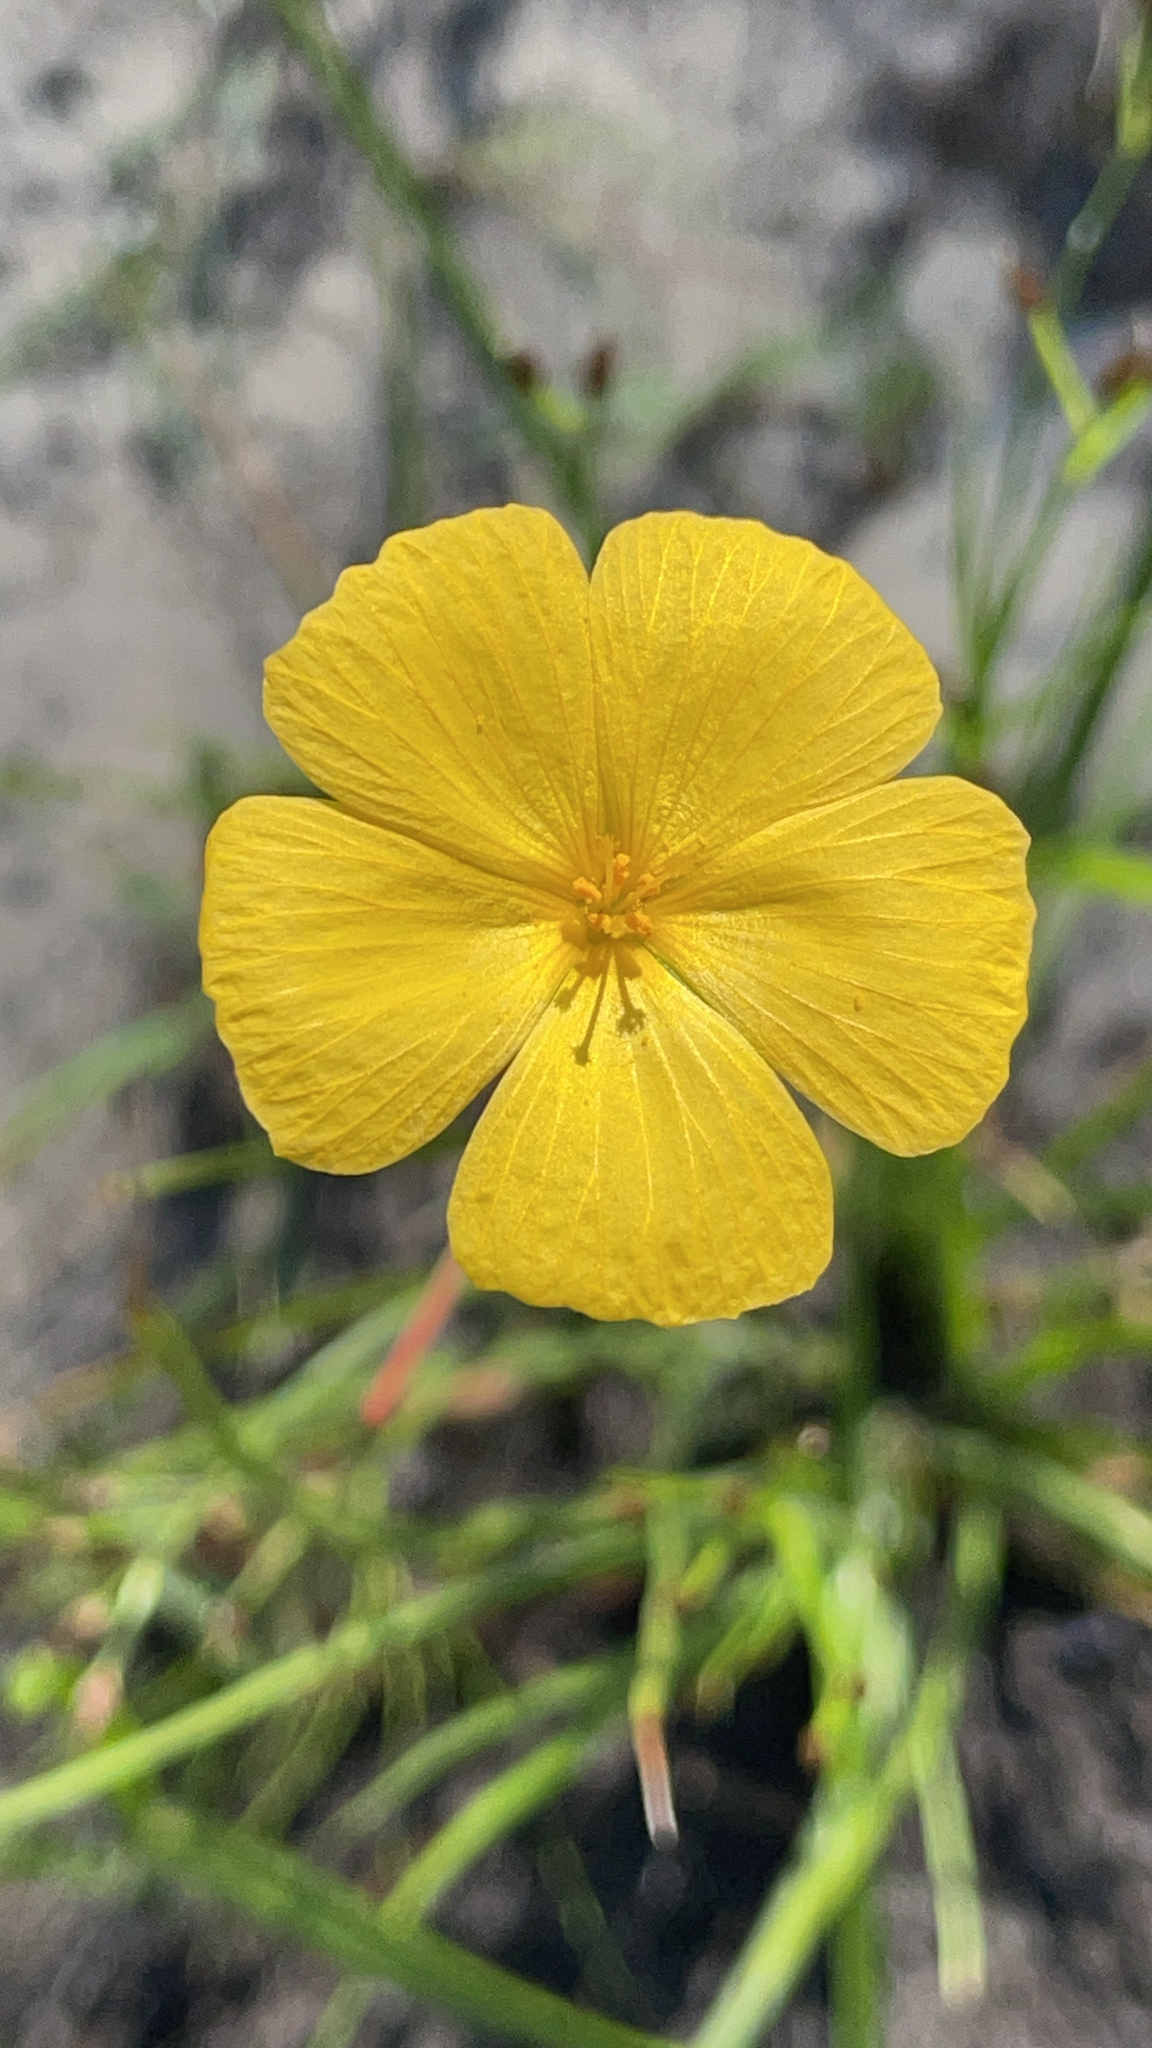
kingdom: Plantae
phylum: Tracheophyta
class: Magnoliopsida
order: Malpighiales
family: Turneraceae
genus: Piriqueta
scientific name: Piriqueta cistoides
